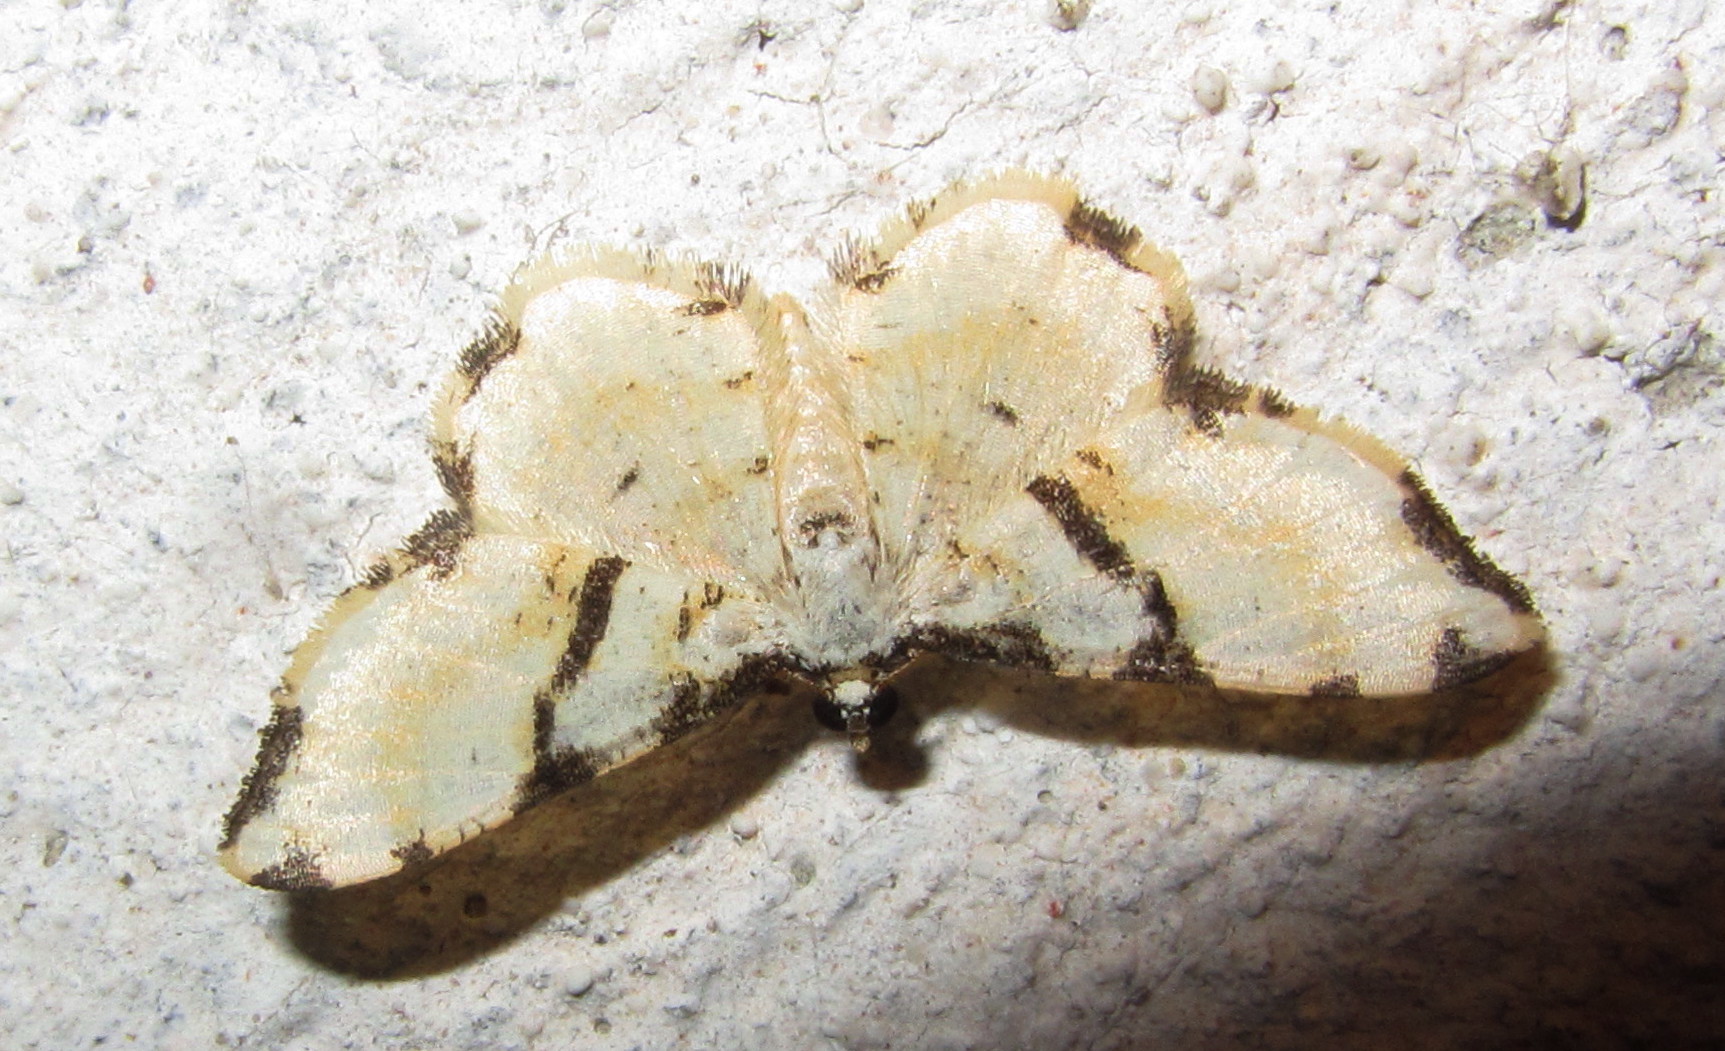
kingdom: Animalia
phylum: Arthropoda
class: Insecta
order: Lepidoptera
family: Geometridae
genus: Monocerotesa
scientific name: Monocerotesa
